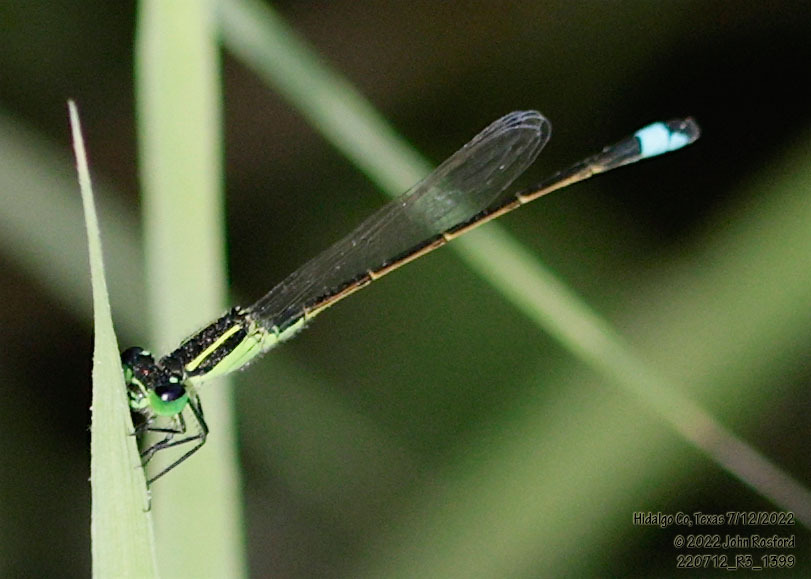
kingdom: Animalia
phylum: Arthropoda
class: Insecta
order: Odonata
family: Coenagrionidae
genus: Ischnura
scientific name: Ischnura ramburii
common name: Rambur's forktail
